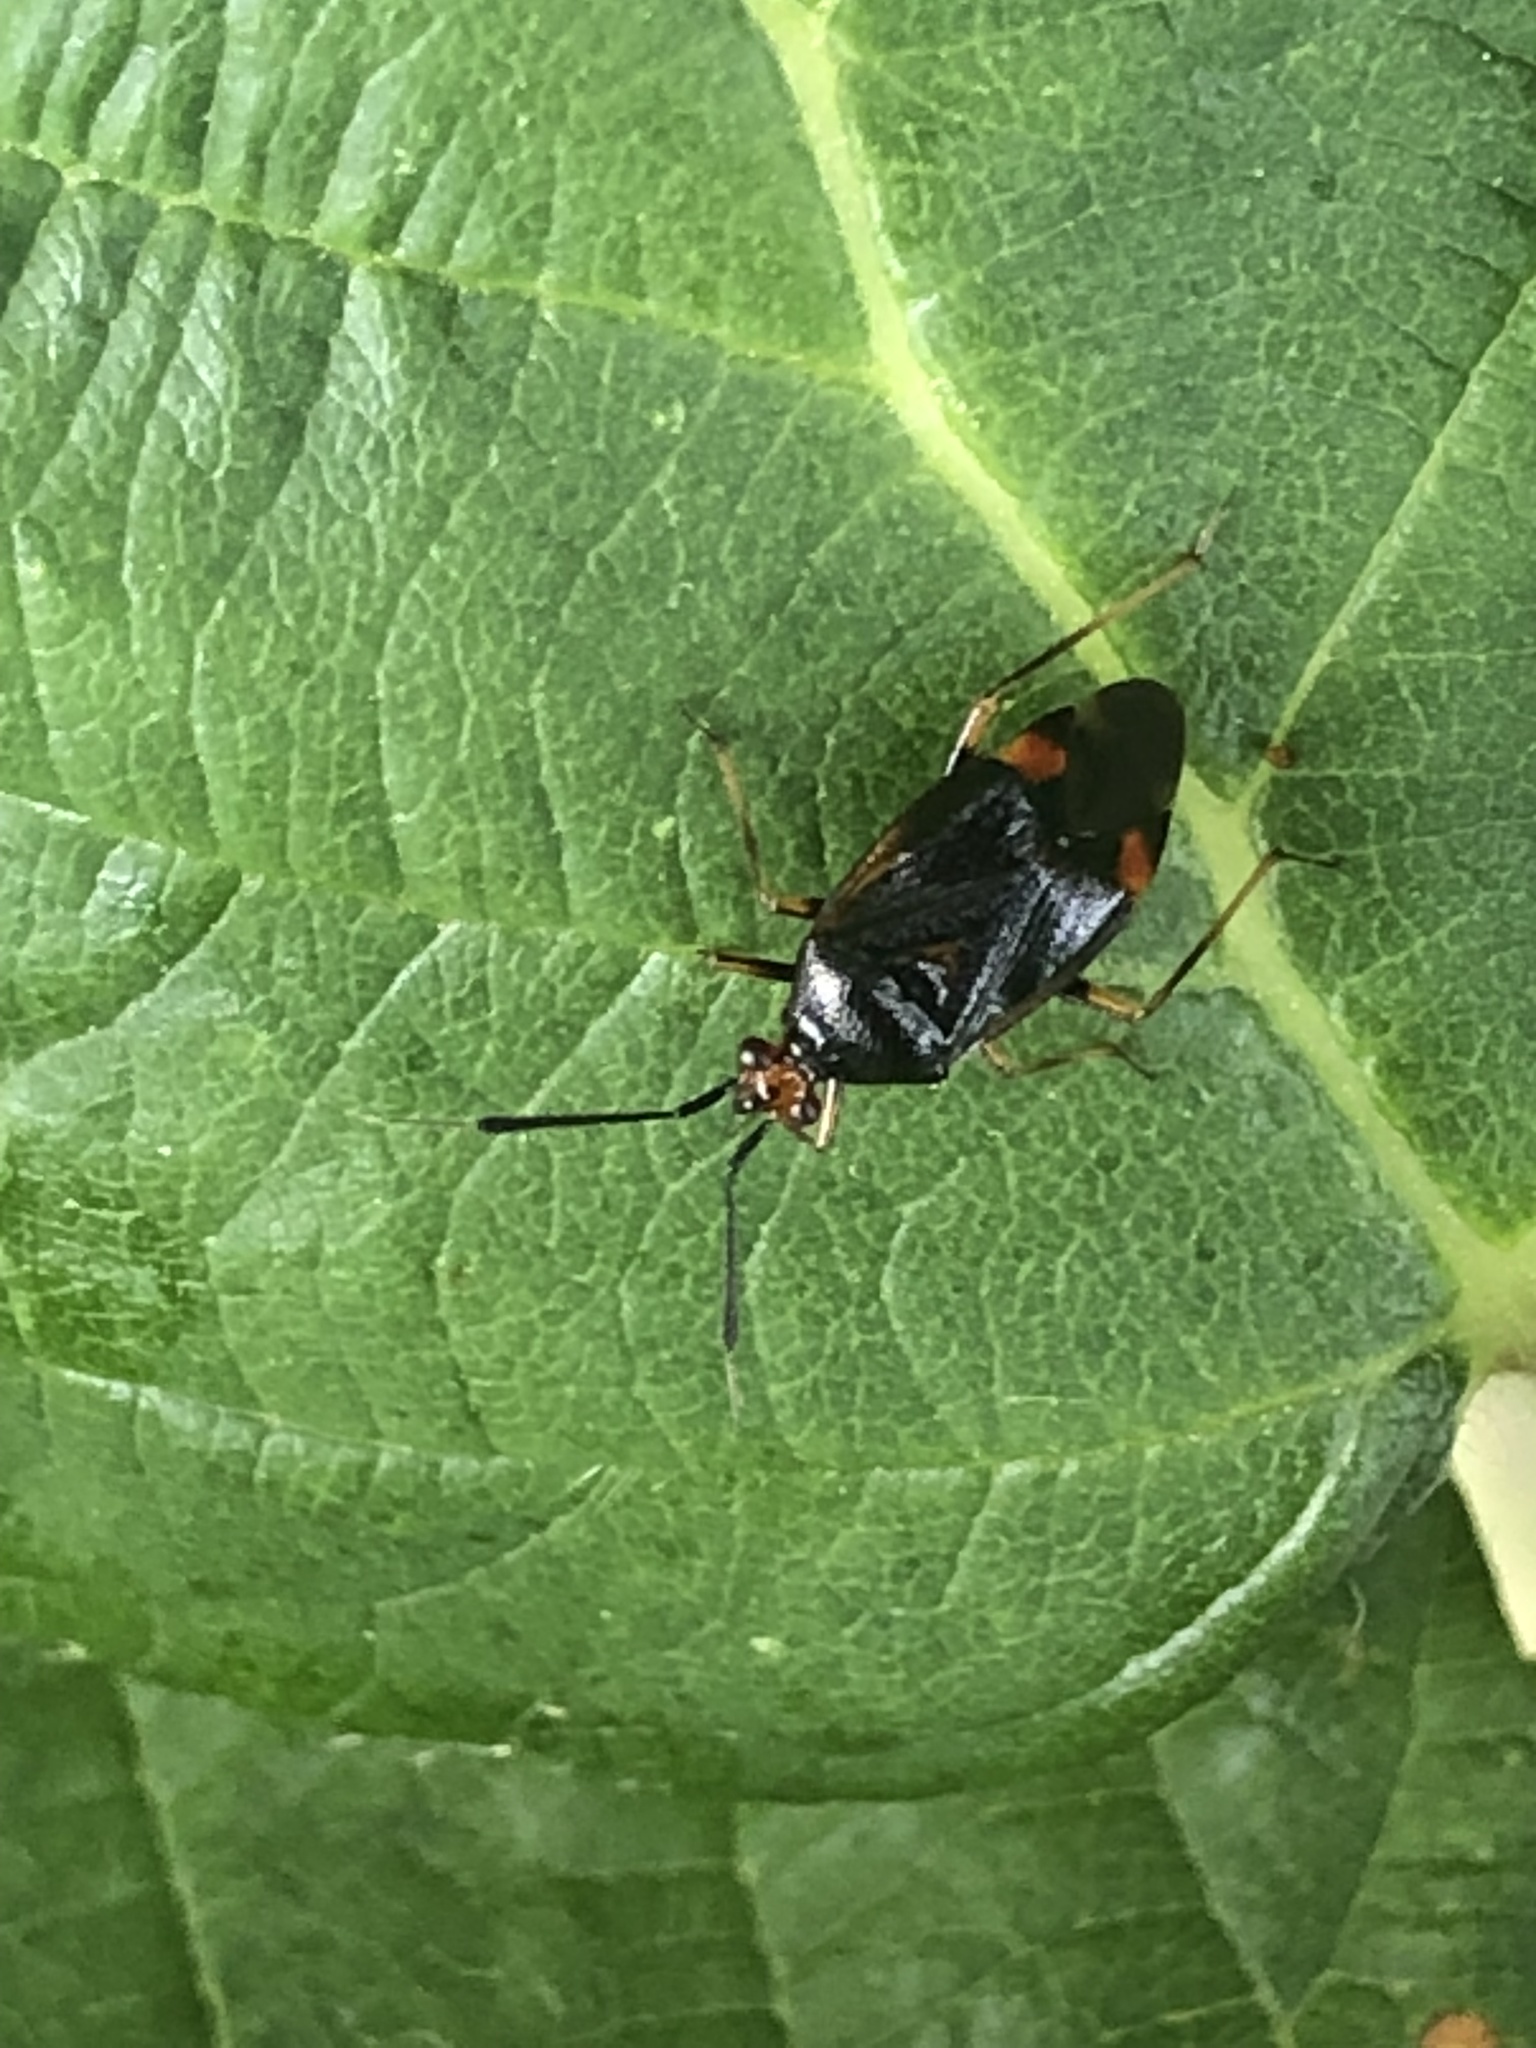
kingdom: Animalia
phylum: Arthropoda
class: Insecta
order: Hemiptera
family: Miridae
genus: Deraeocoris
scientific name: Deraeocoris ruber
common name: Plant bug
